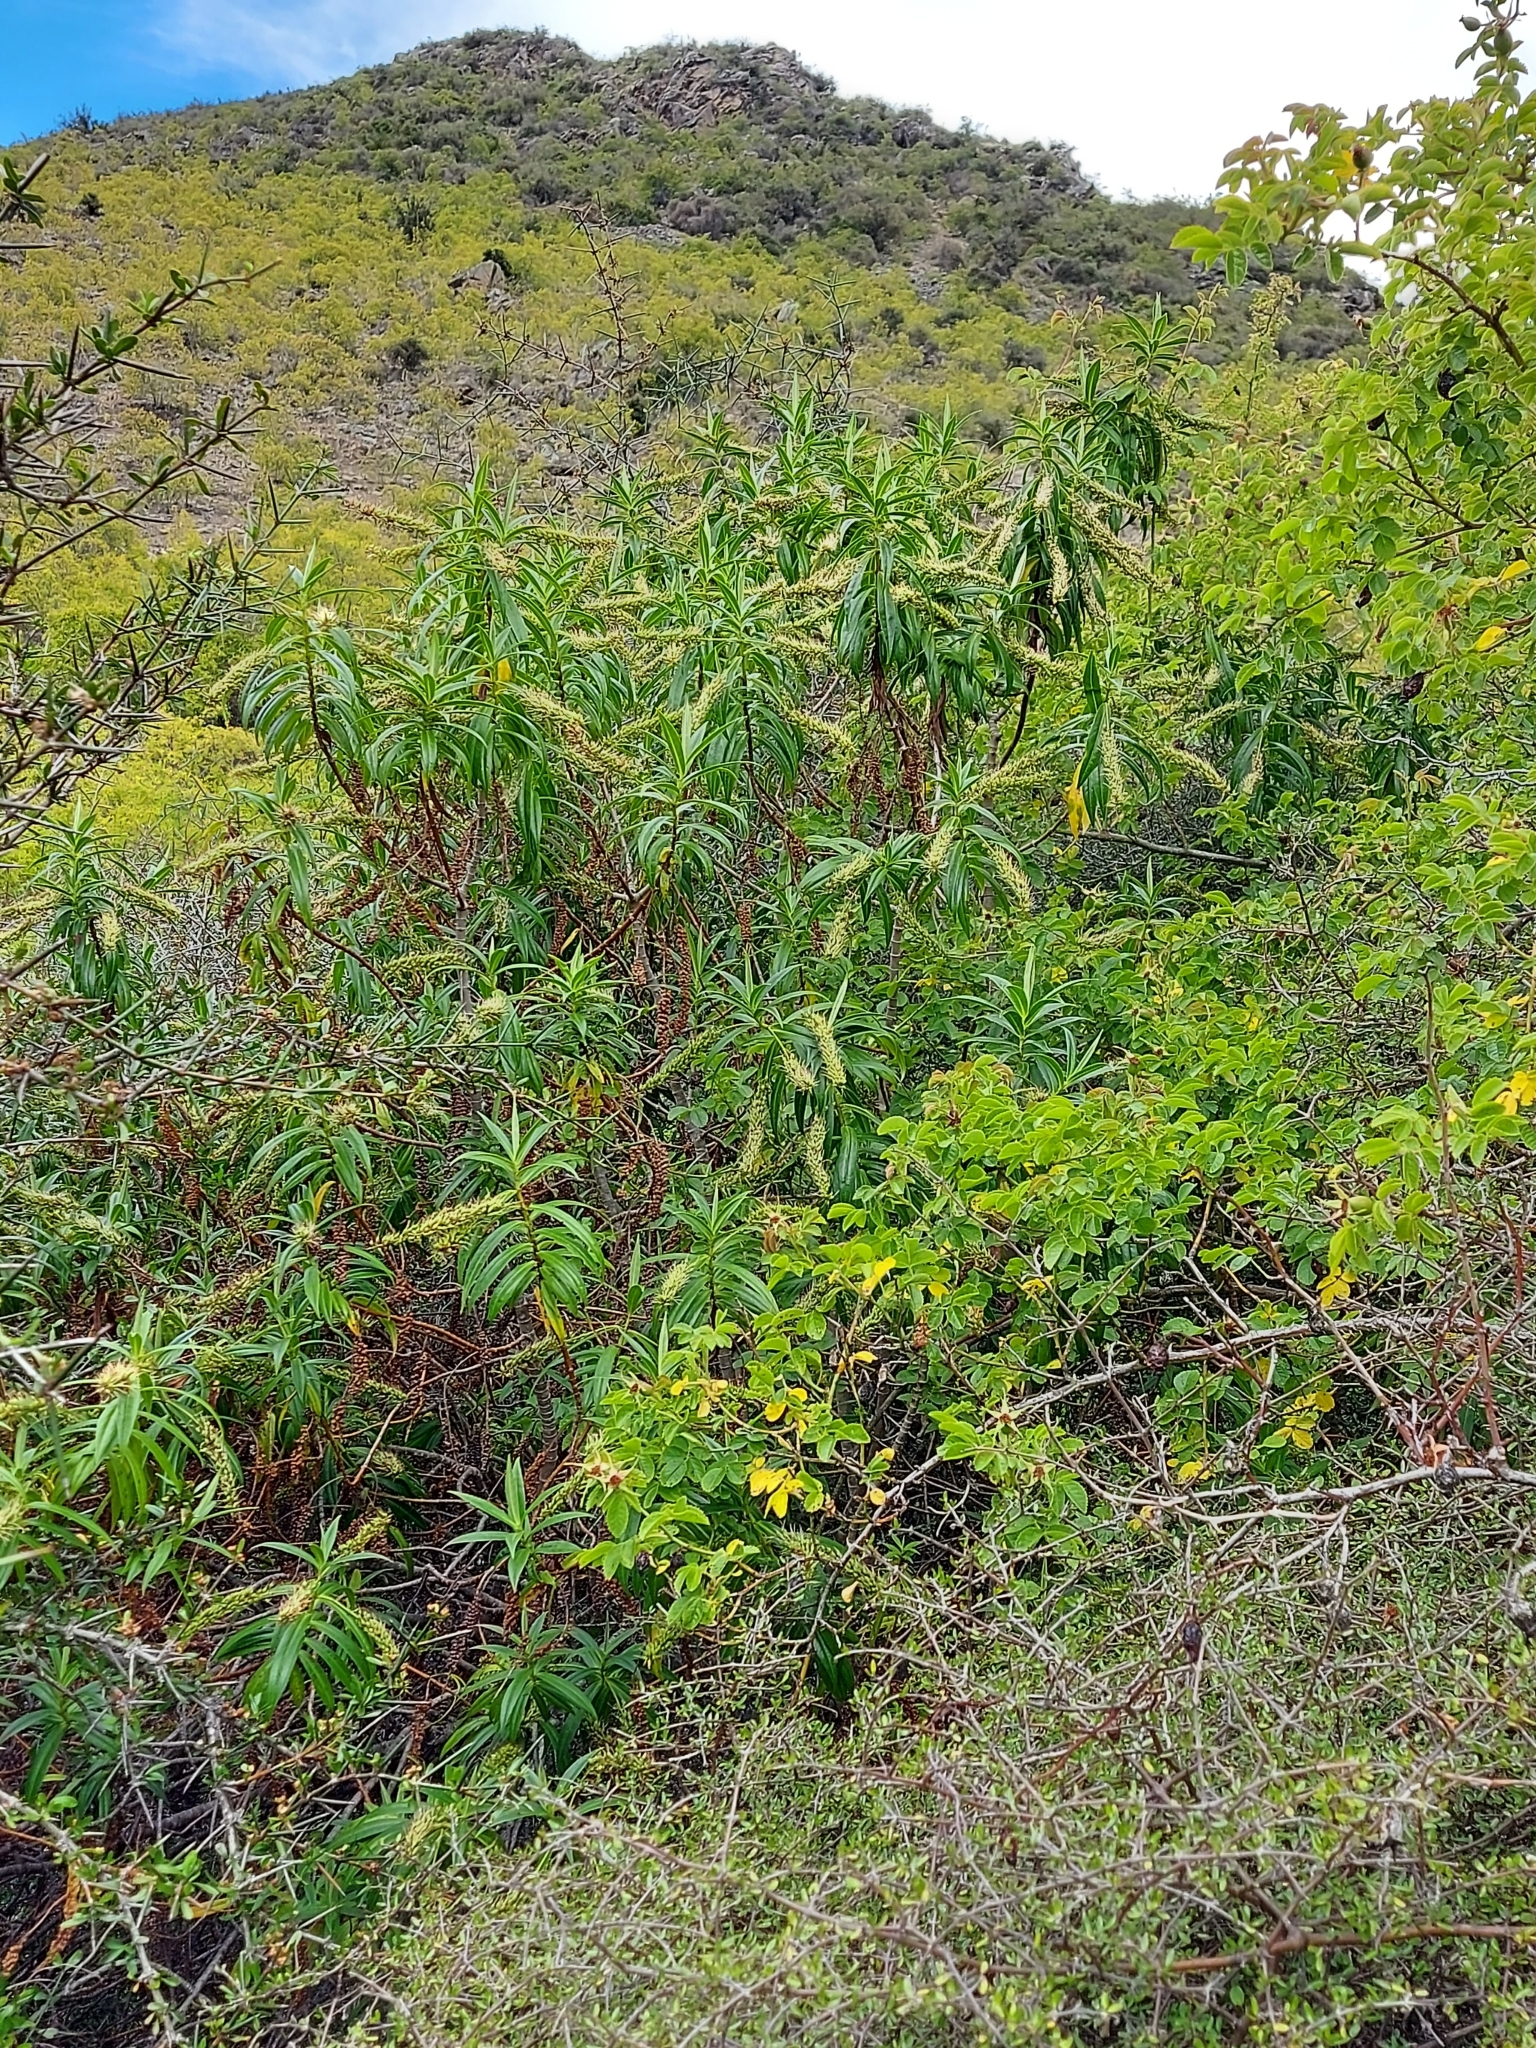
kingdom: Plantae
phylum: Tracheophyta
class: Magnoliopsida
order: Lamiales
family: Plantaginaceae
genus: Veronica
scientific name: Veronica salicifolia
